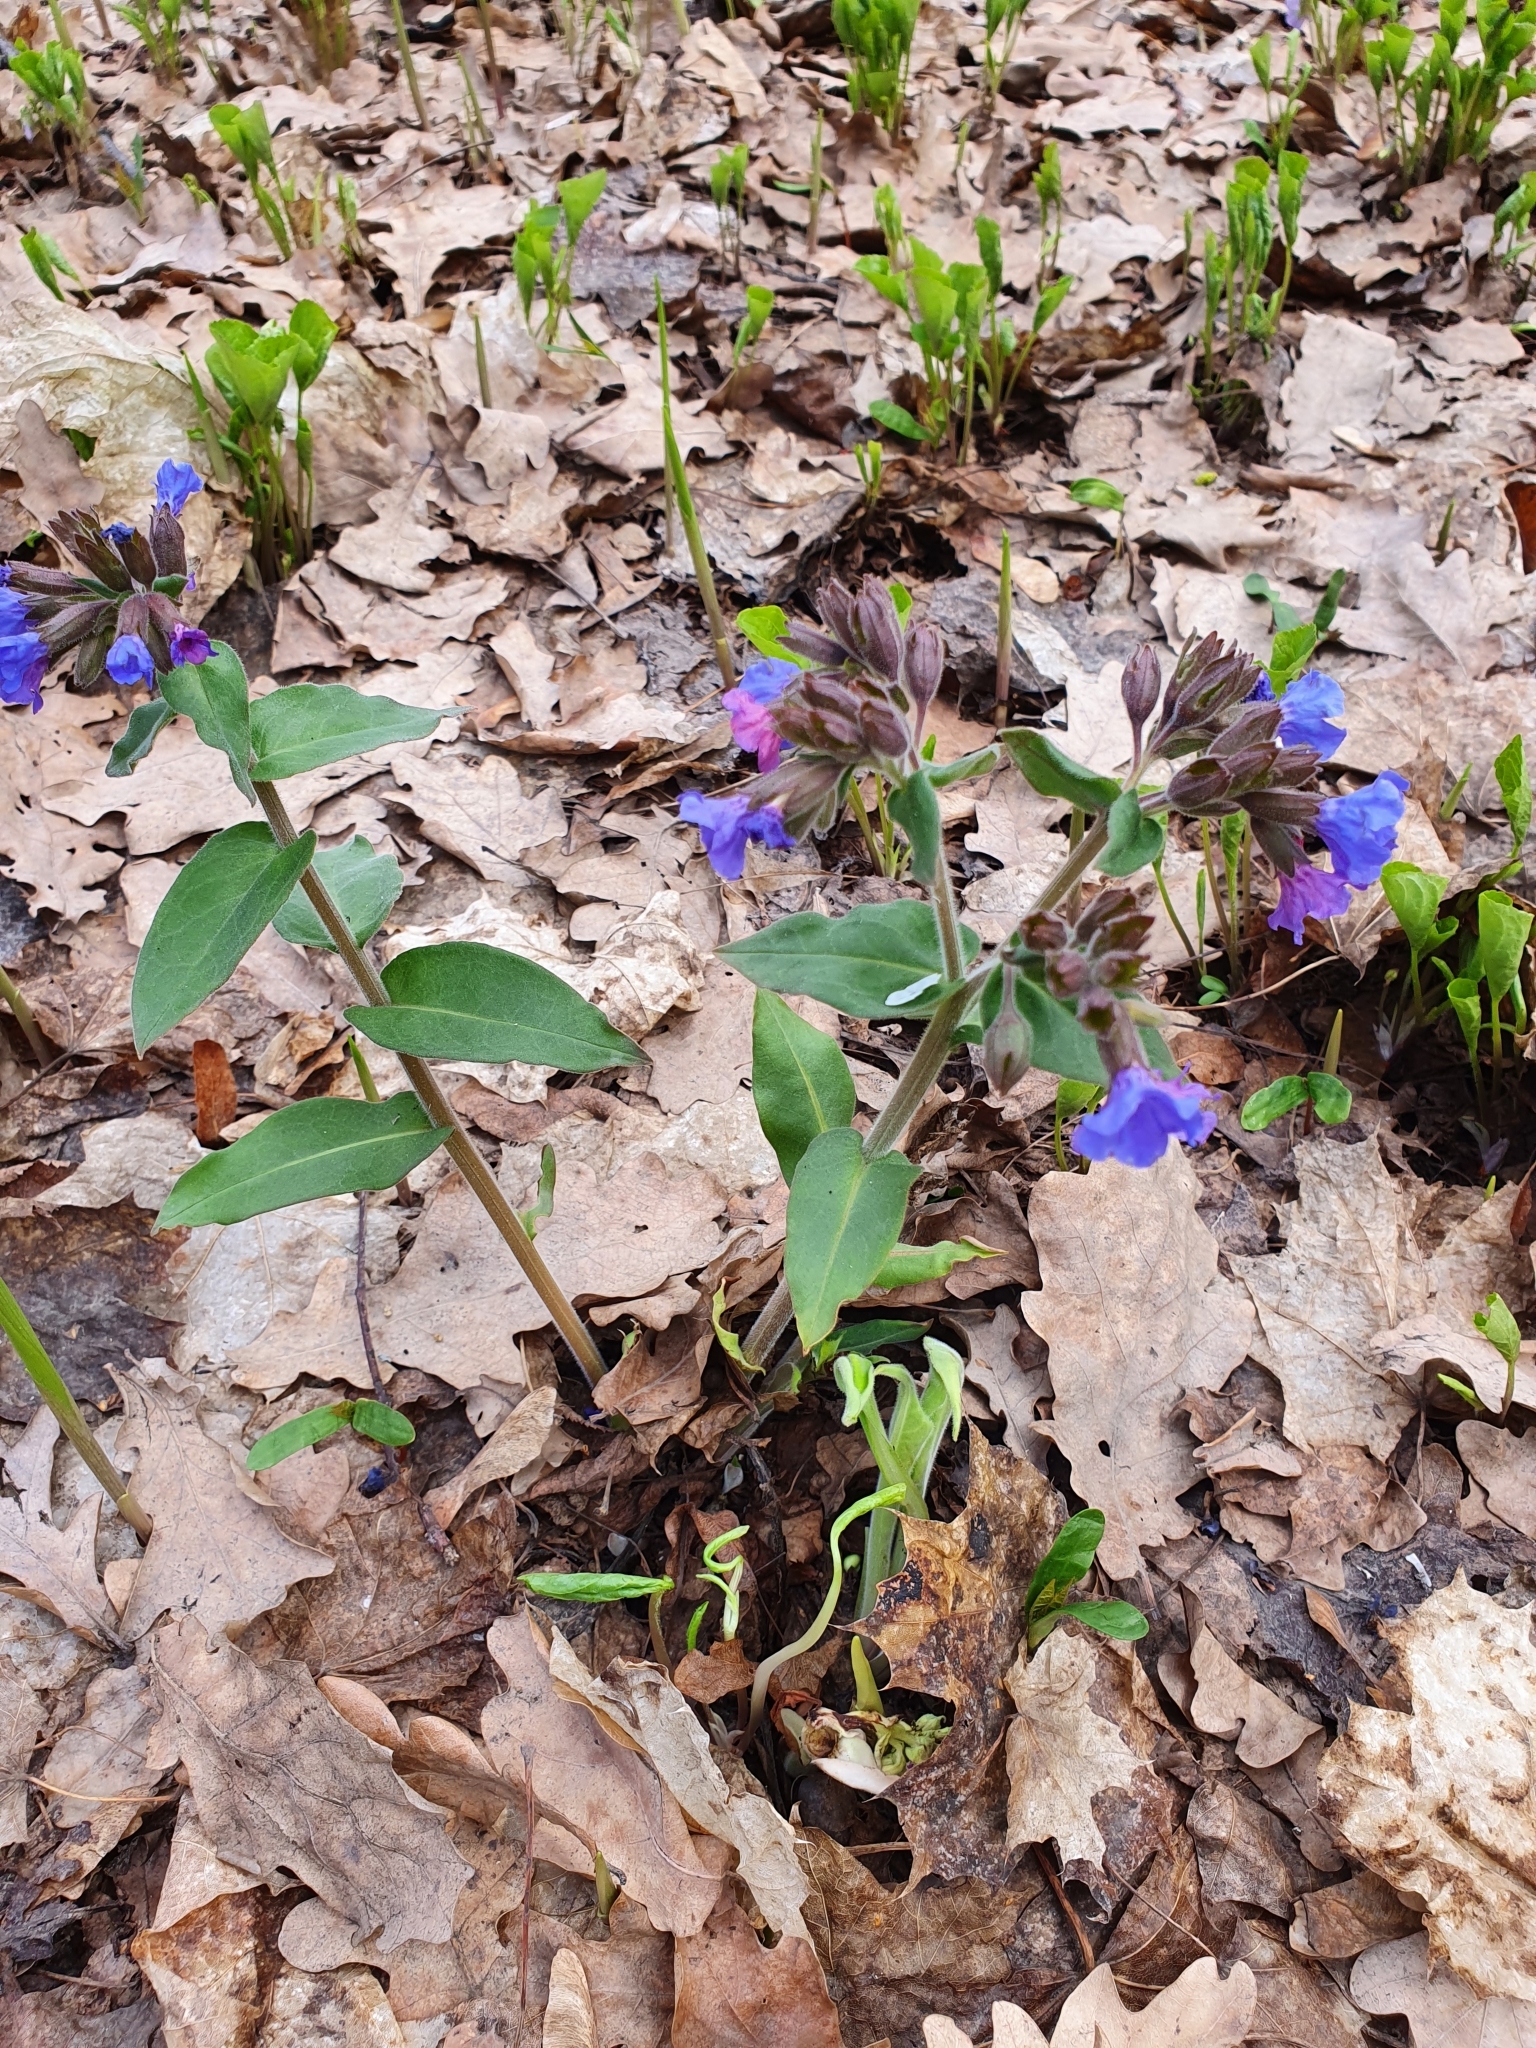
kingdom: Plantae
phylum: Tracheophyta
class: Magnoliopsida
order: Boraginales
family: Boraginaceae
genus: Pulmonaria
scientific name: Pulmonaria mollis
